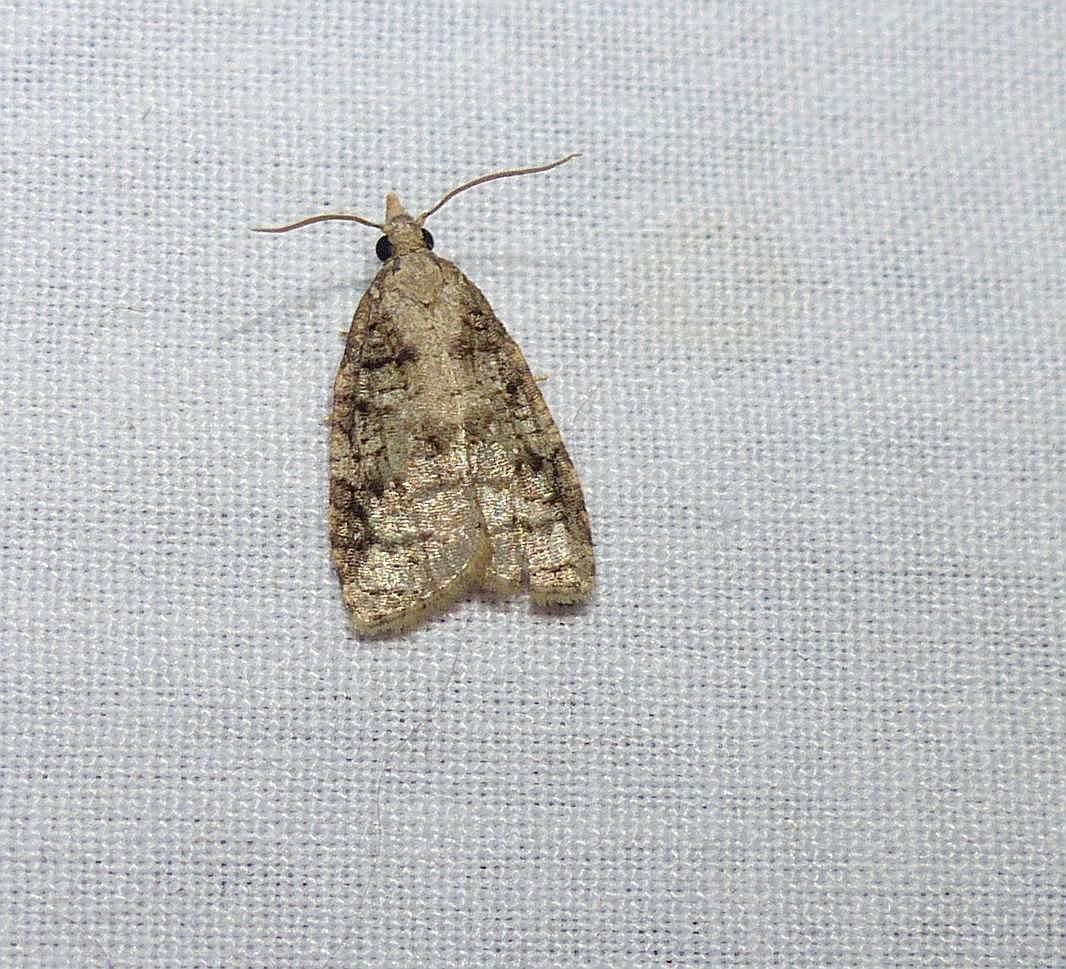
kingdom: Animalia
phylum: Arthropoda
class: Insecta
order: Lepidoptera
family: Tortricidae
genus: Platynota
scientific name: Platynota exasperatana
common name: Exasperating platynota moth
